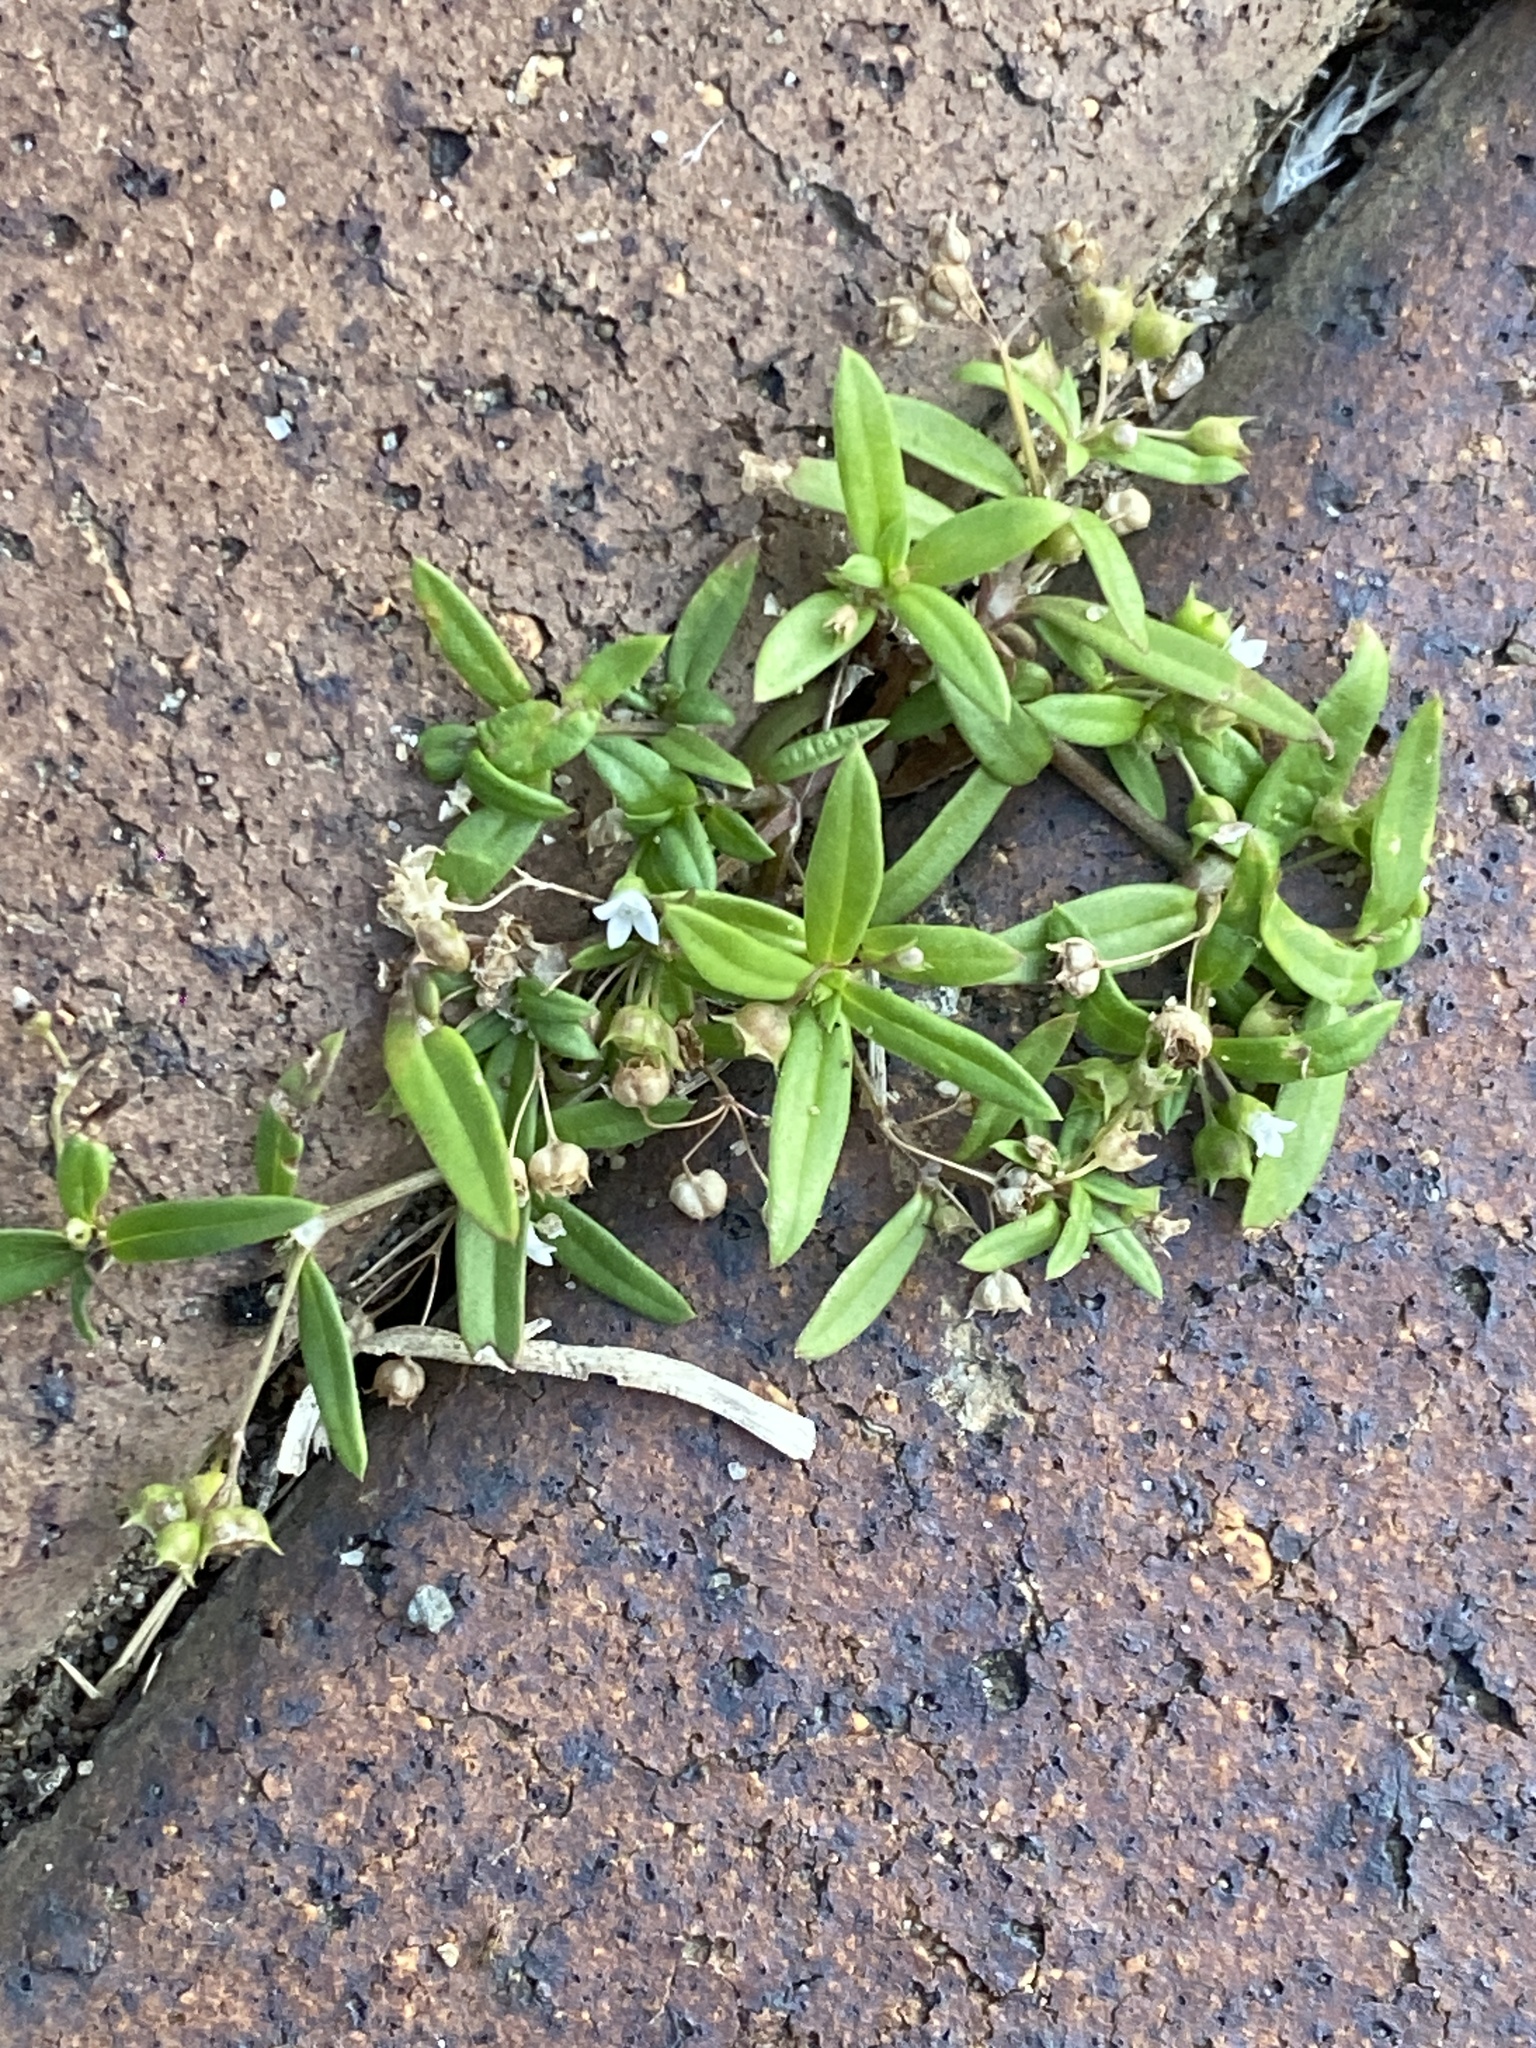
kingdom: Plantae
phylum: Tracheophyta
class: Magnoliopsida
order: Gentianales
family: Rubiaceae
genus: Oldenlandia
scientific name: Oldenlandia corymbosa
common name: Flat-top mille graines
